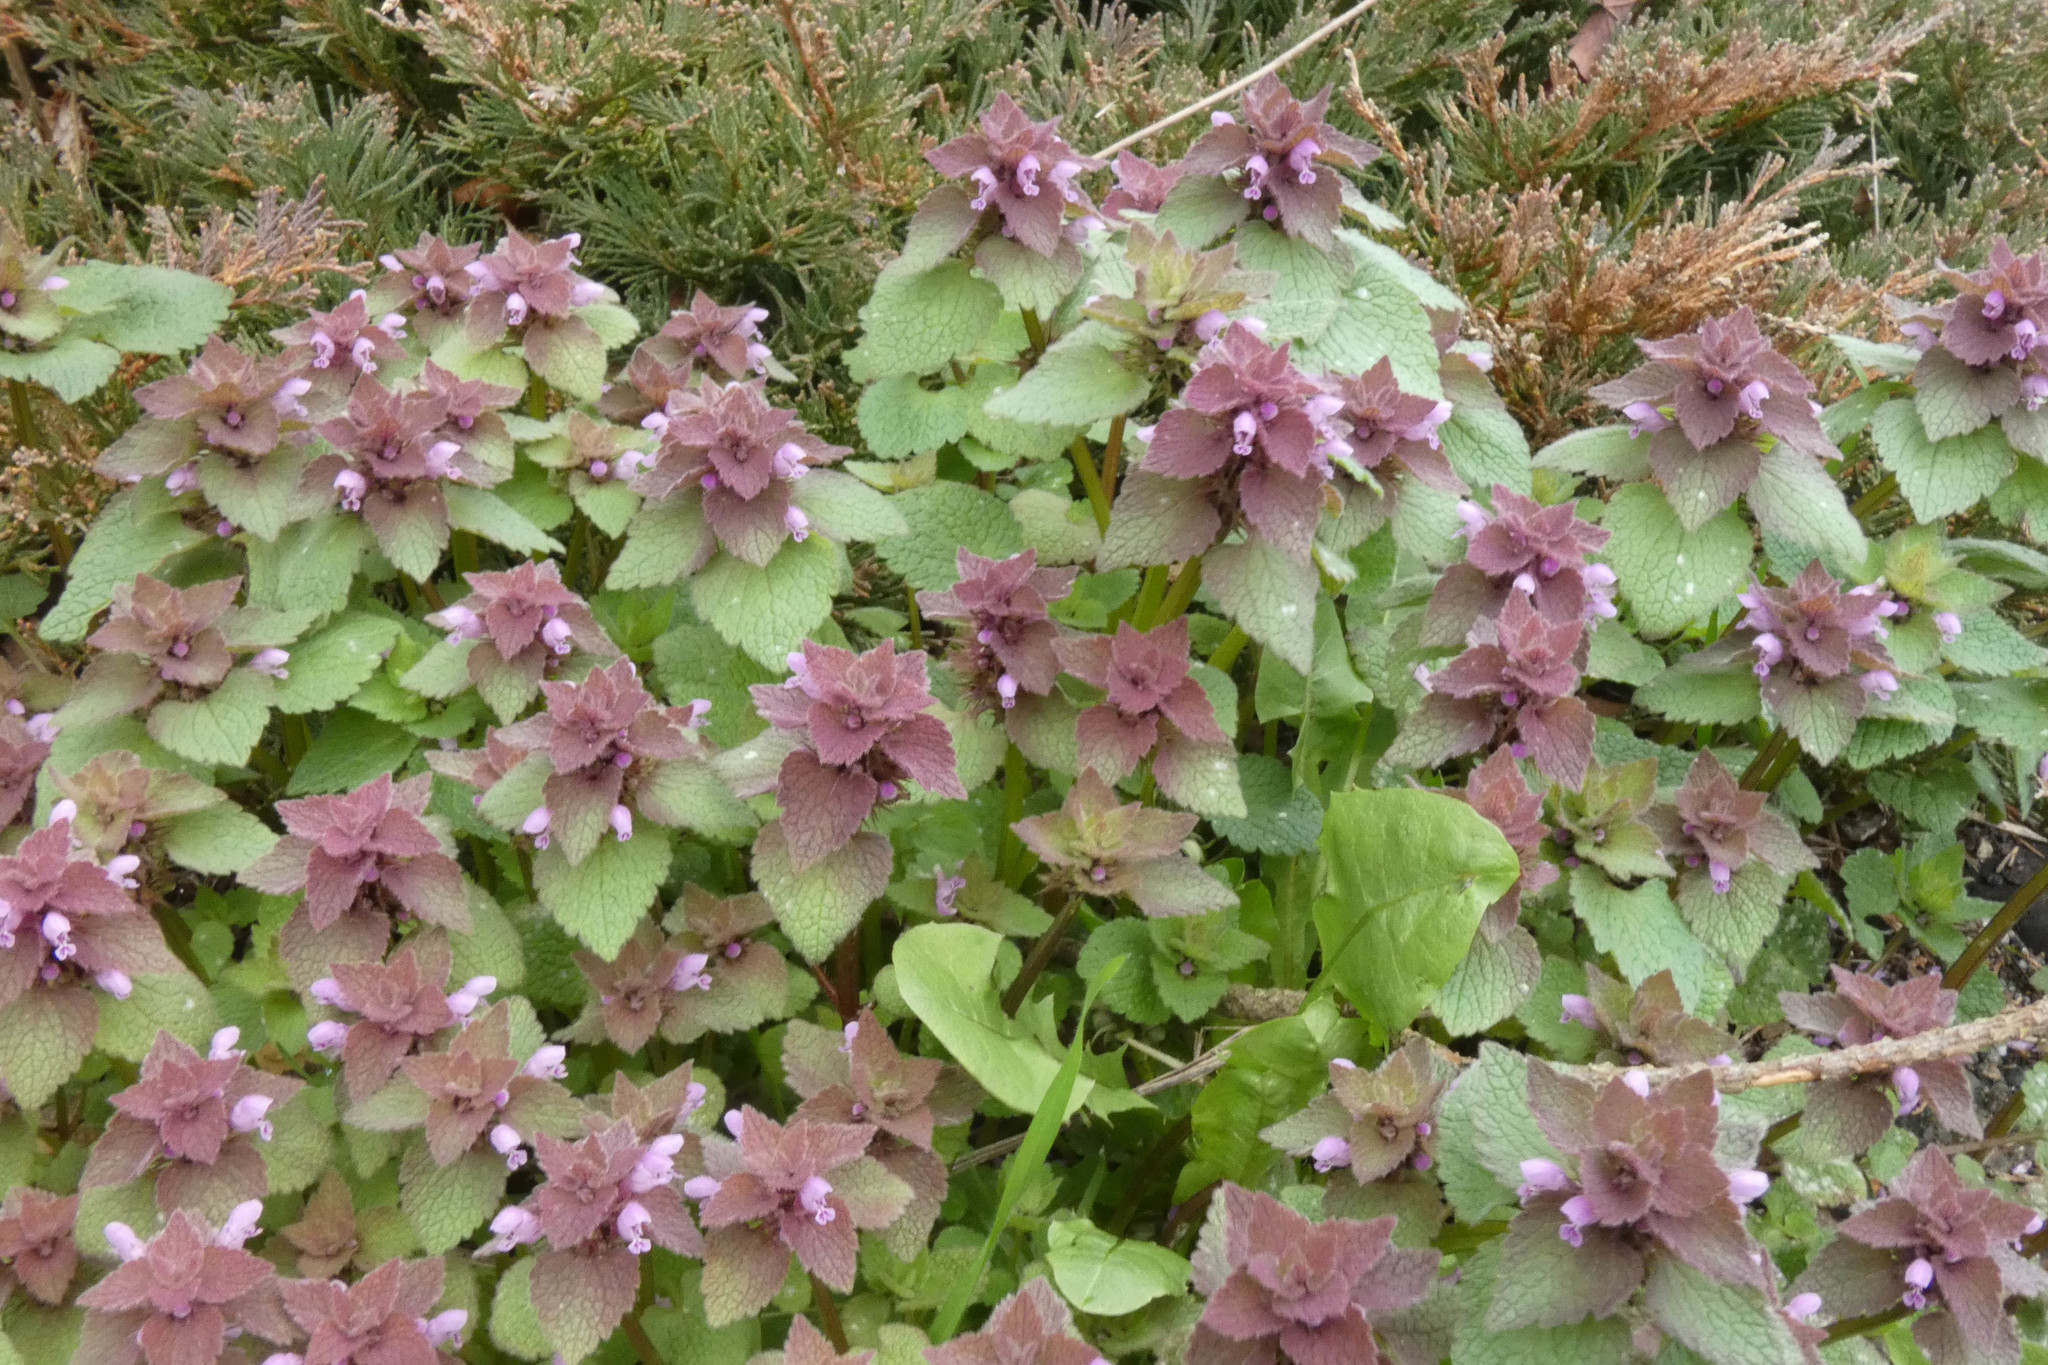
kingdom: Plantae
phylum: Tracheophyta
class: Magnoliopsida
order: Lamiales
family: Lamiaceae
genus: Lamium
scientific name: Lamium purpureum
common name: Red dead-nettle
